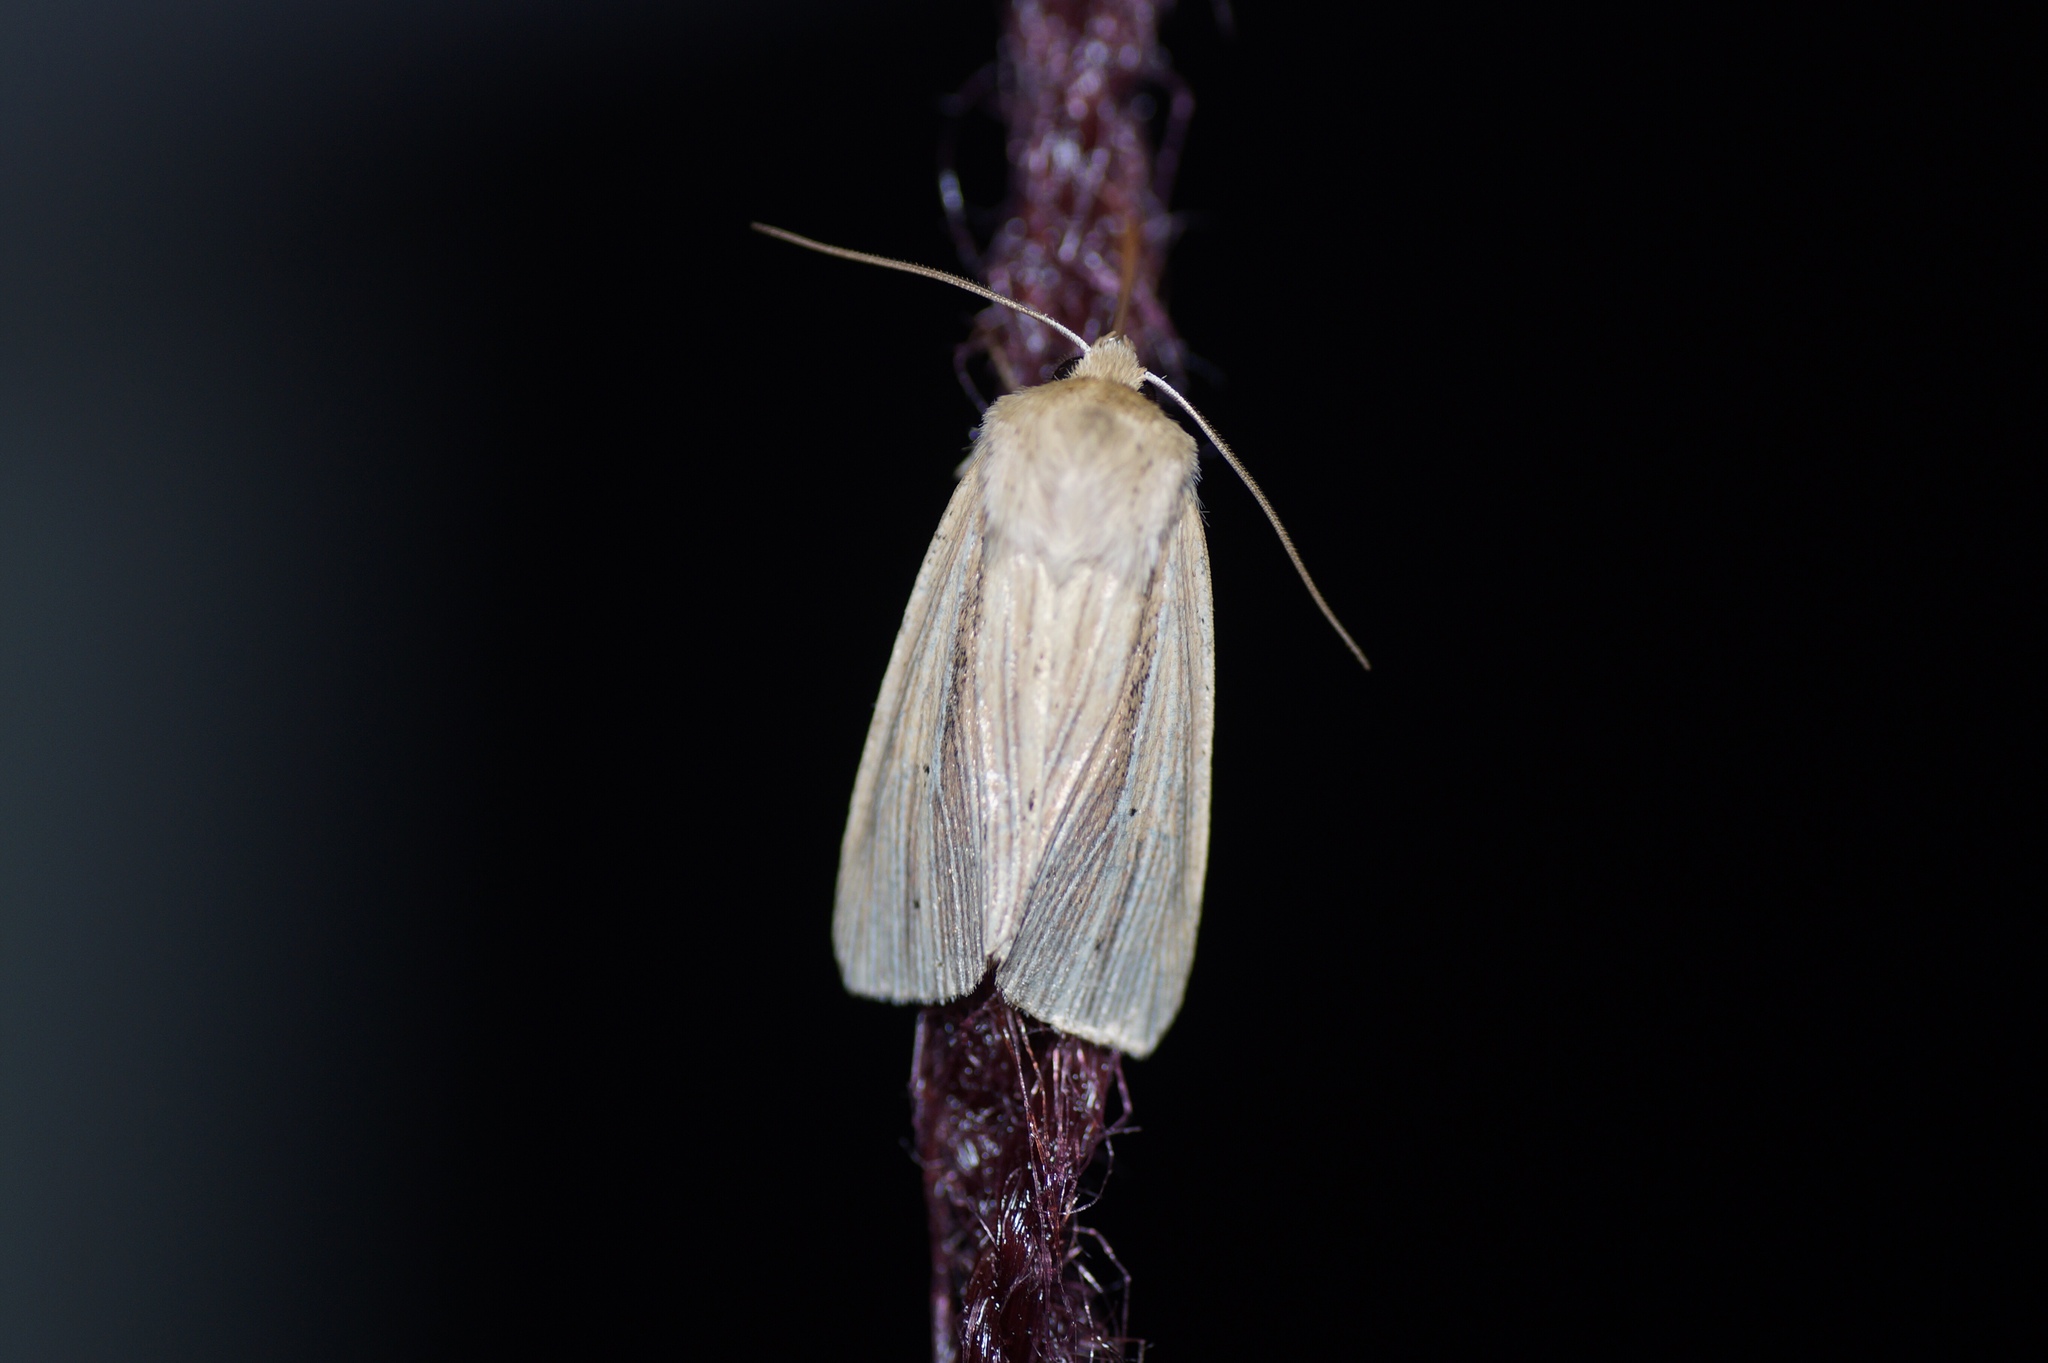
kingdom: Animalia
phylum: Arthropoda
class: Insecta
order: Lepidoptera
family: Noctuidae
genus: Mythimna
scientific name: Mythimna impura
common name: Smoky wainscot
